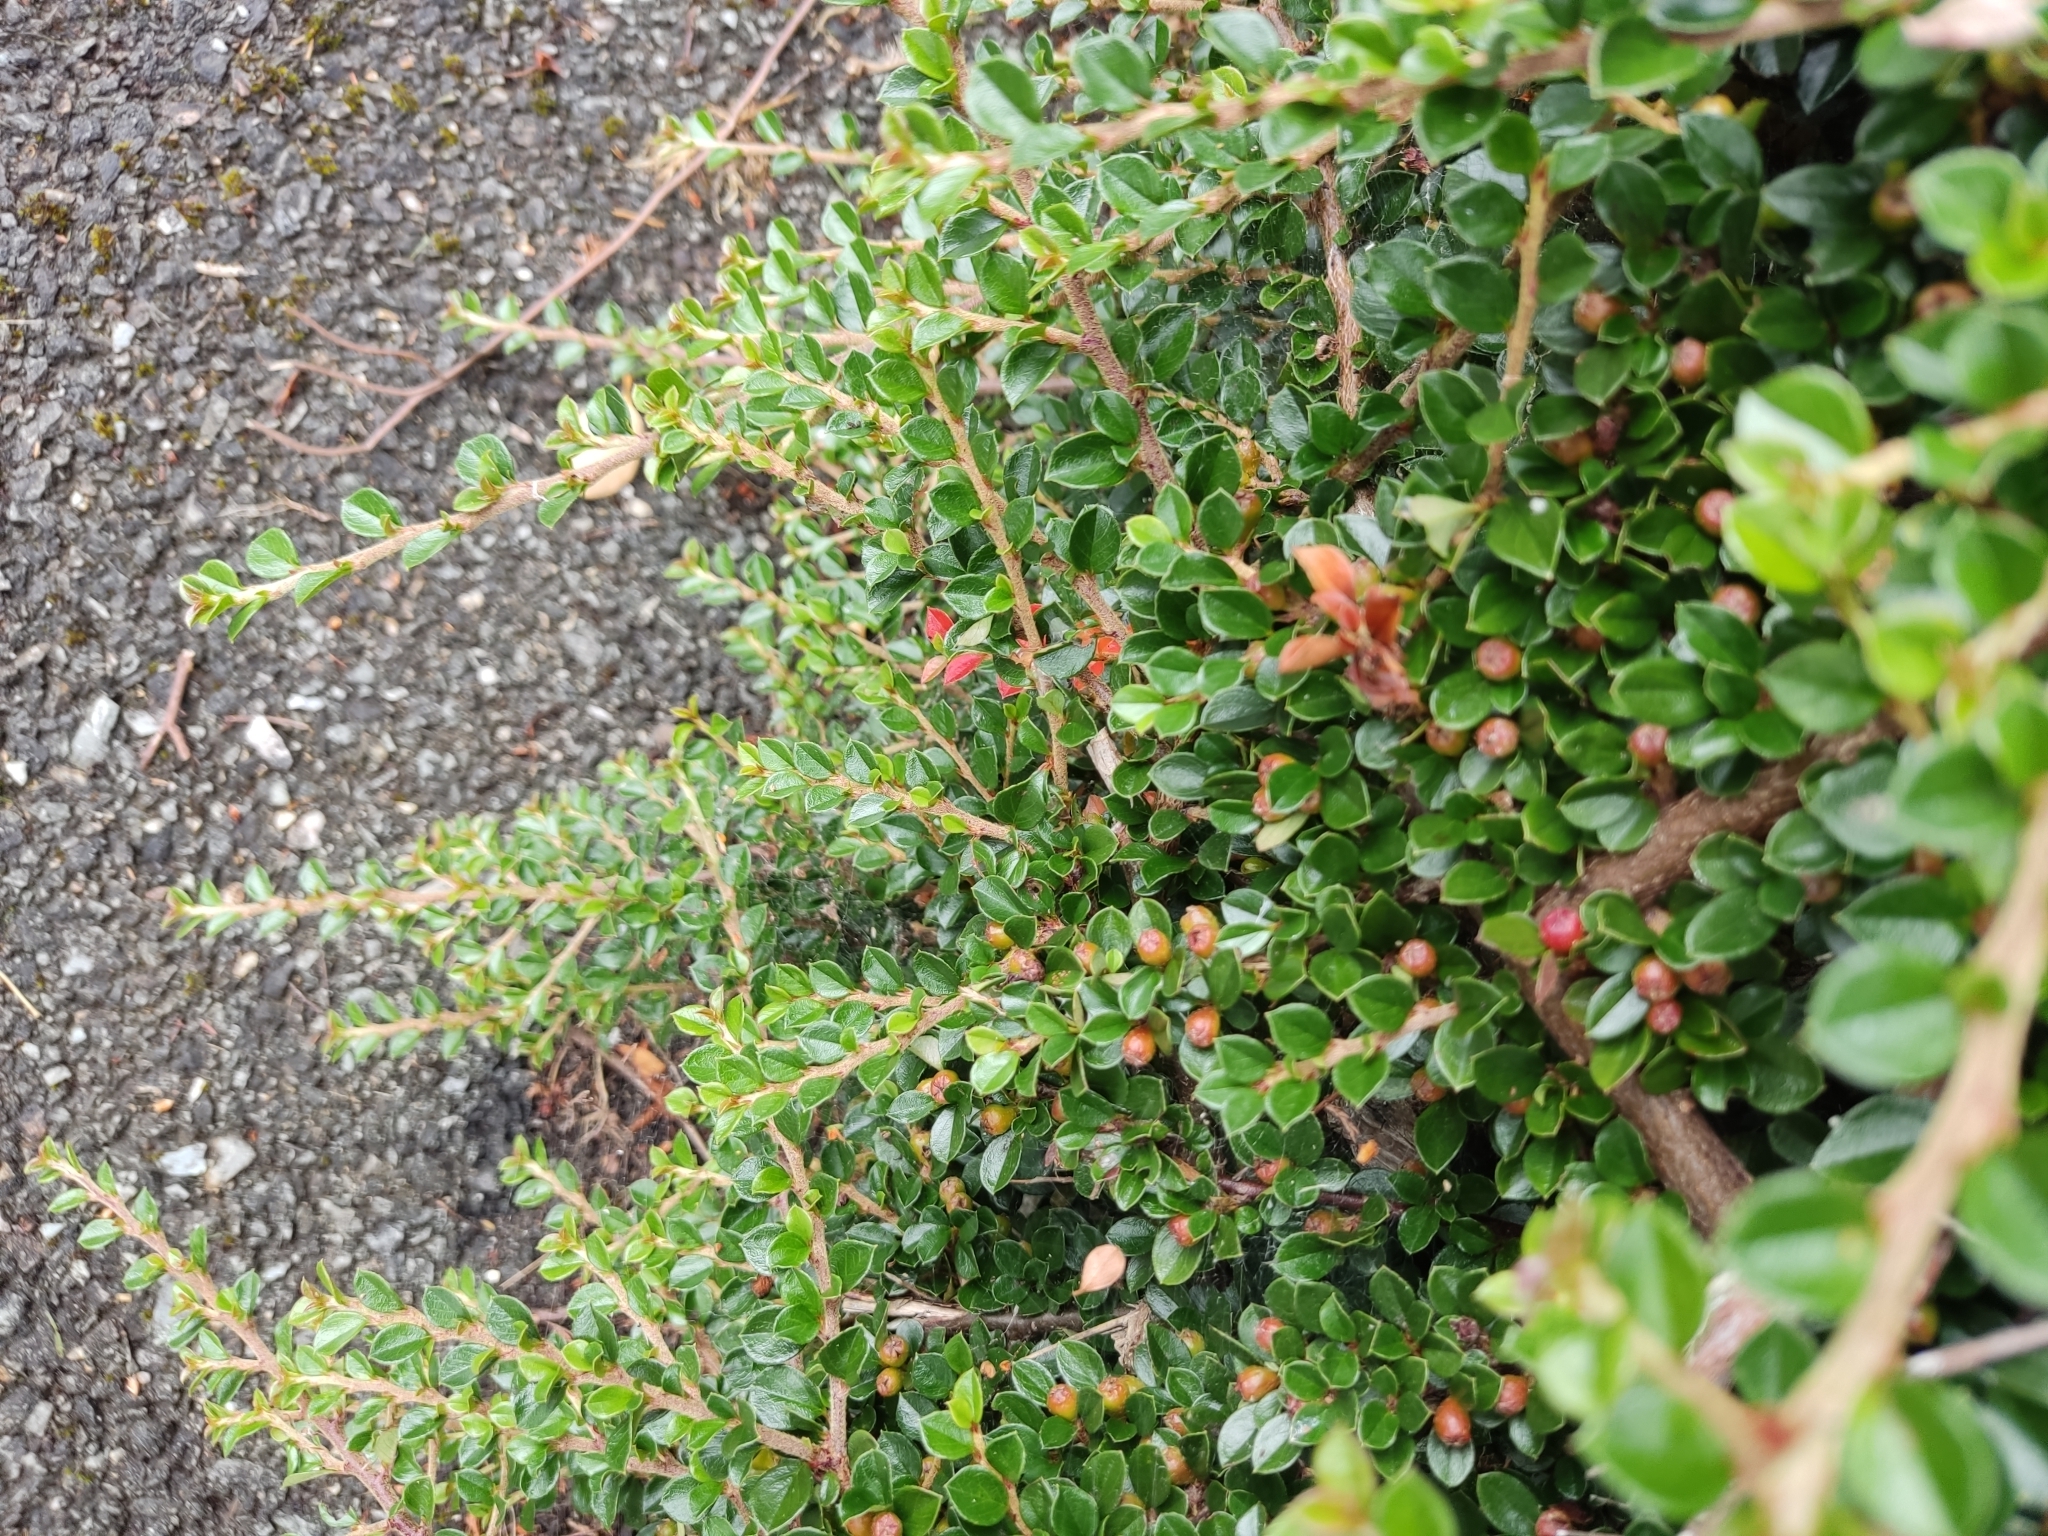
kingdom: Plantae
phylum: Tracheophyta
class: Magnoliopsida
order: Rosales
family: Rosaceae
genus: Cotoneaster
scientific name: Cotoneaster horizontalis
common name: Wall cotoneaster
